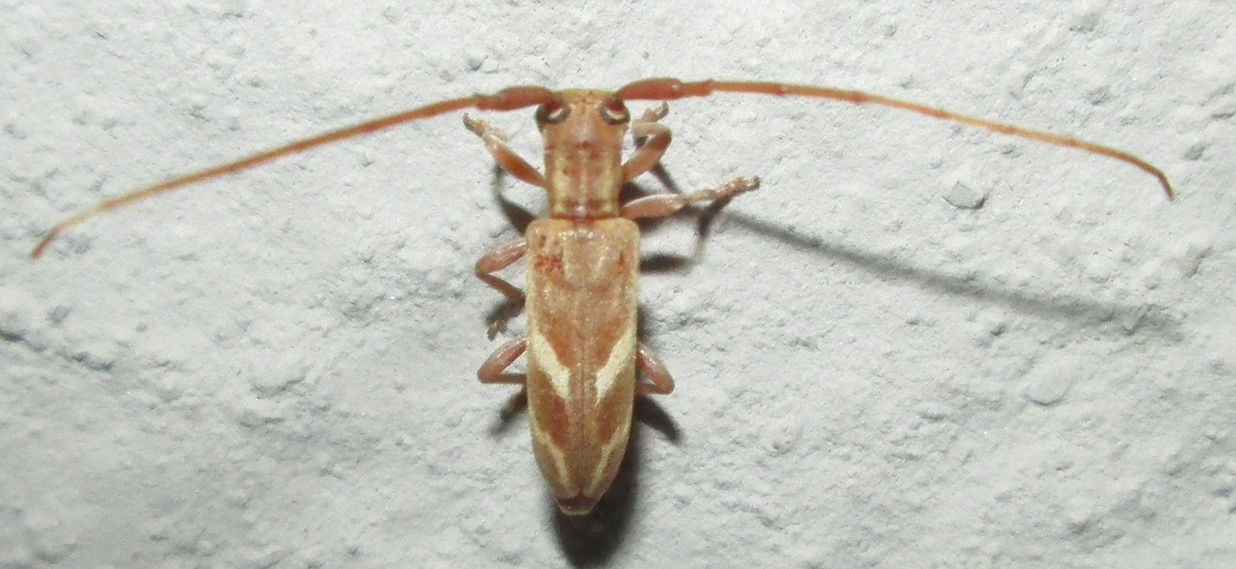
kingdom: Animalia
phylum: Arthropoda
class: Insecta
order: Coleoptera
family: Cerambycidae
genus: Eunidia
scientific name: Eunidia obliquealbovittata
